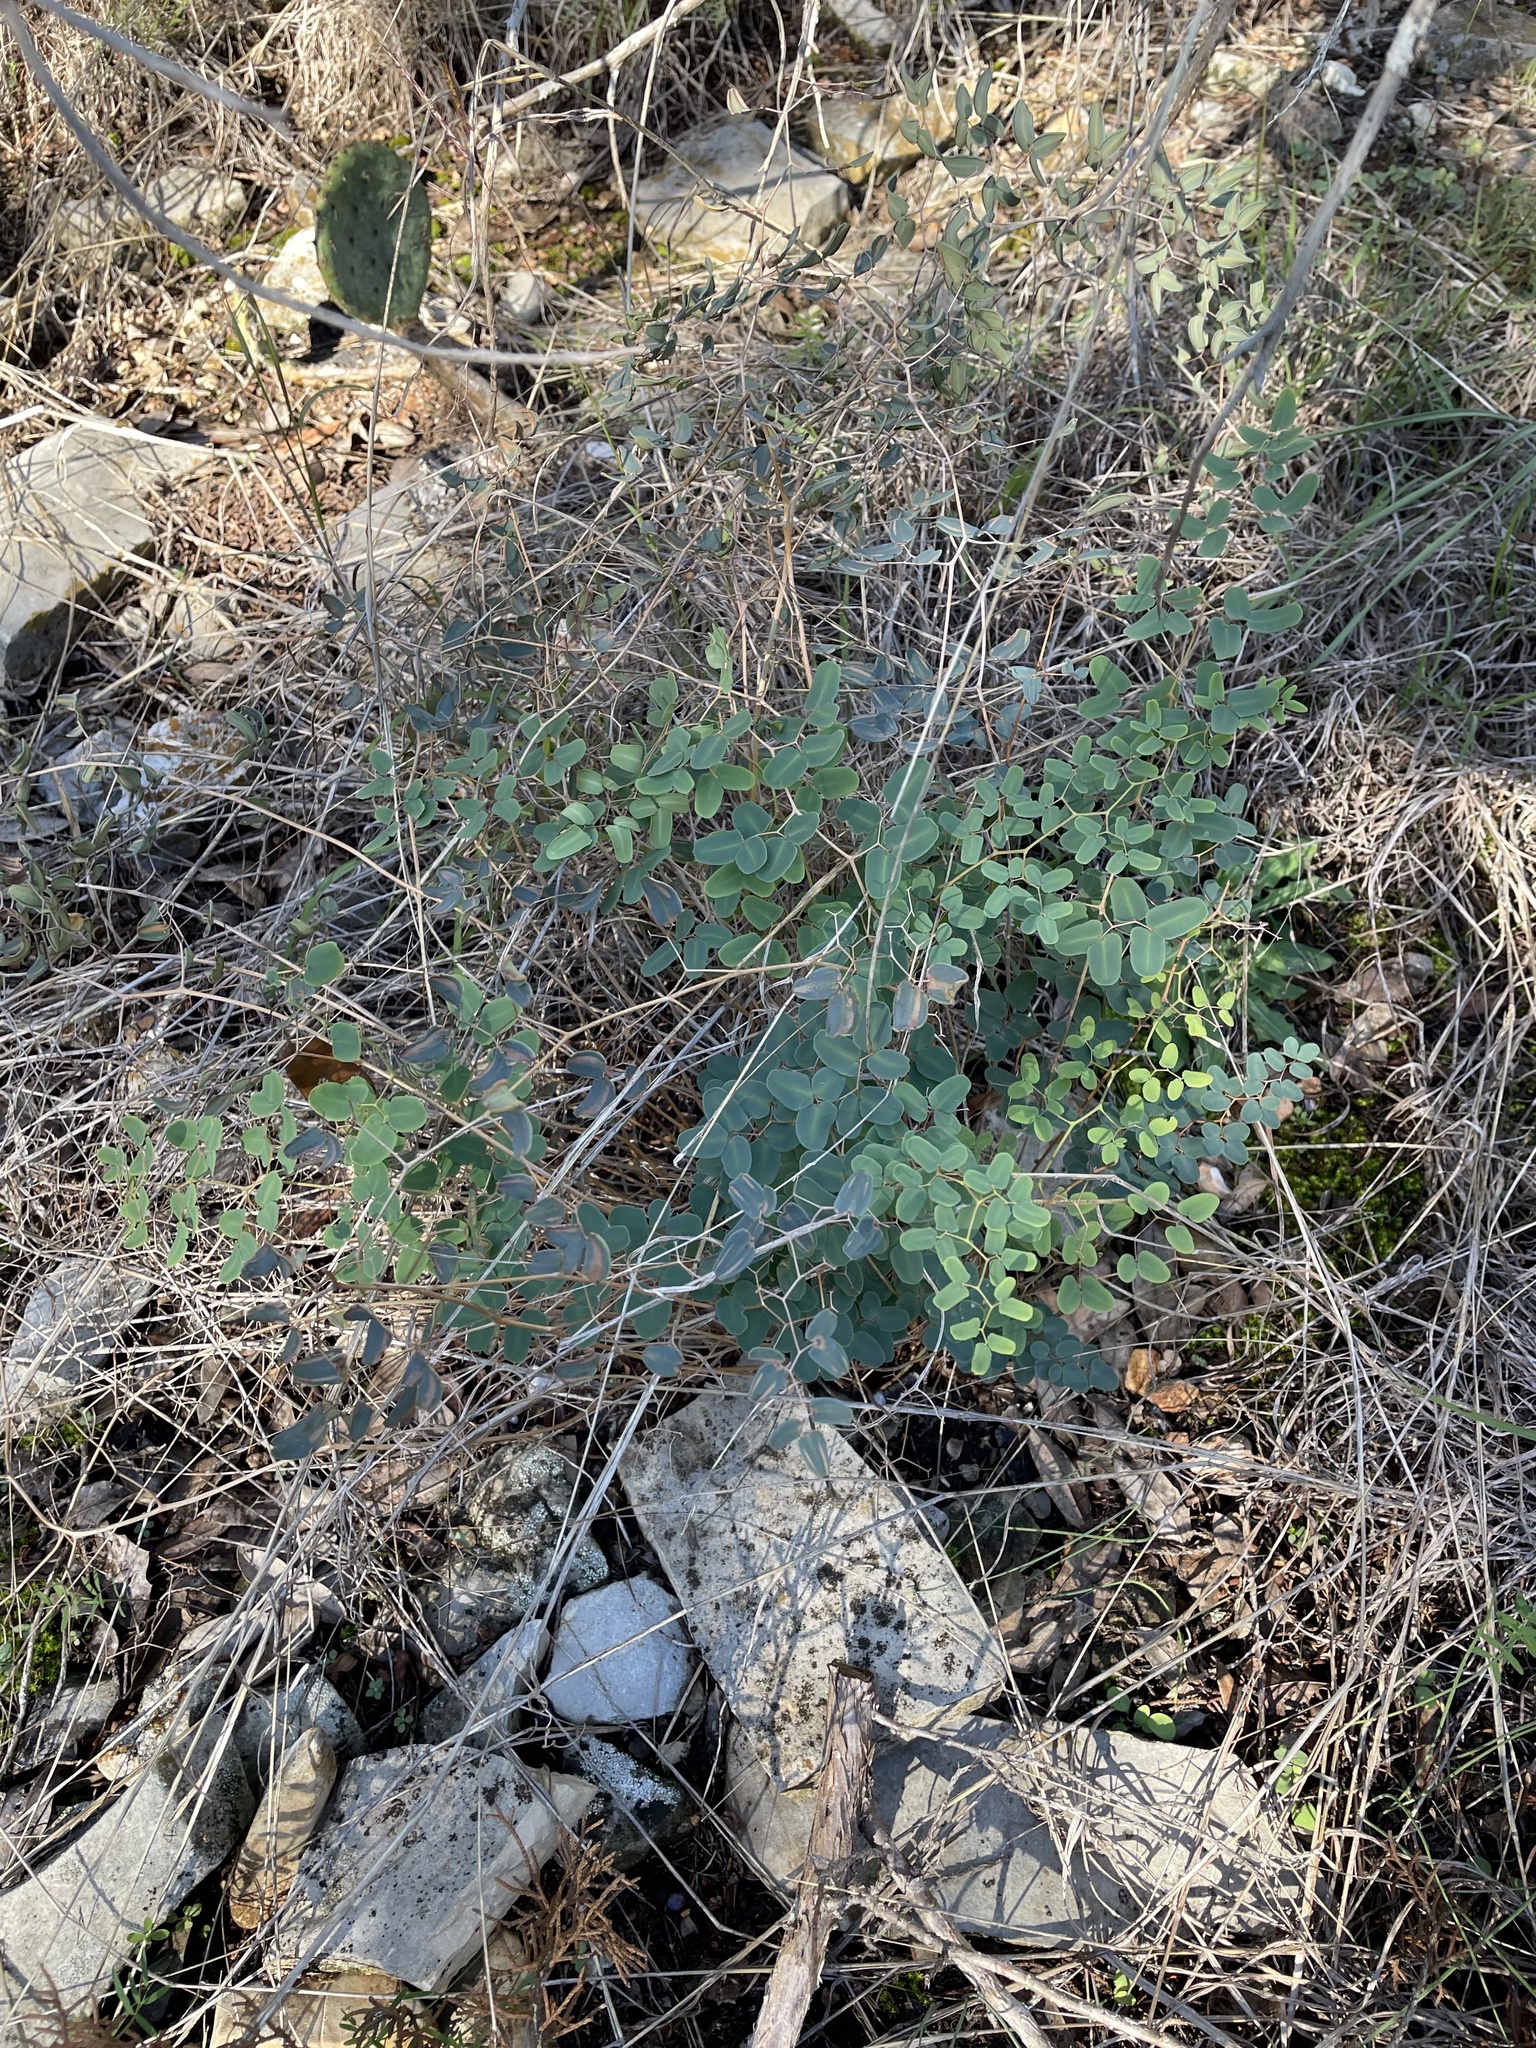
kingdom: Plantae
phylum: Tracheophyta
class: Polypodiopsida
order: Polypodiales
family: Pteridaceae
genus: Pellaea
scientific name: Pellaea ovata
